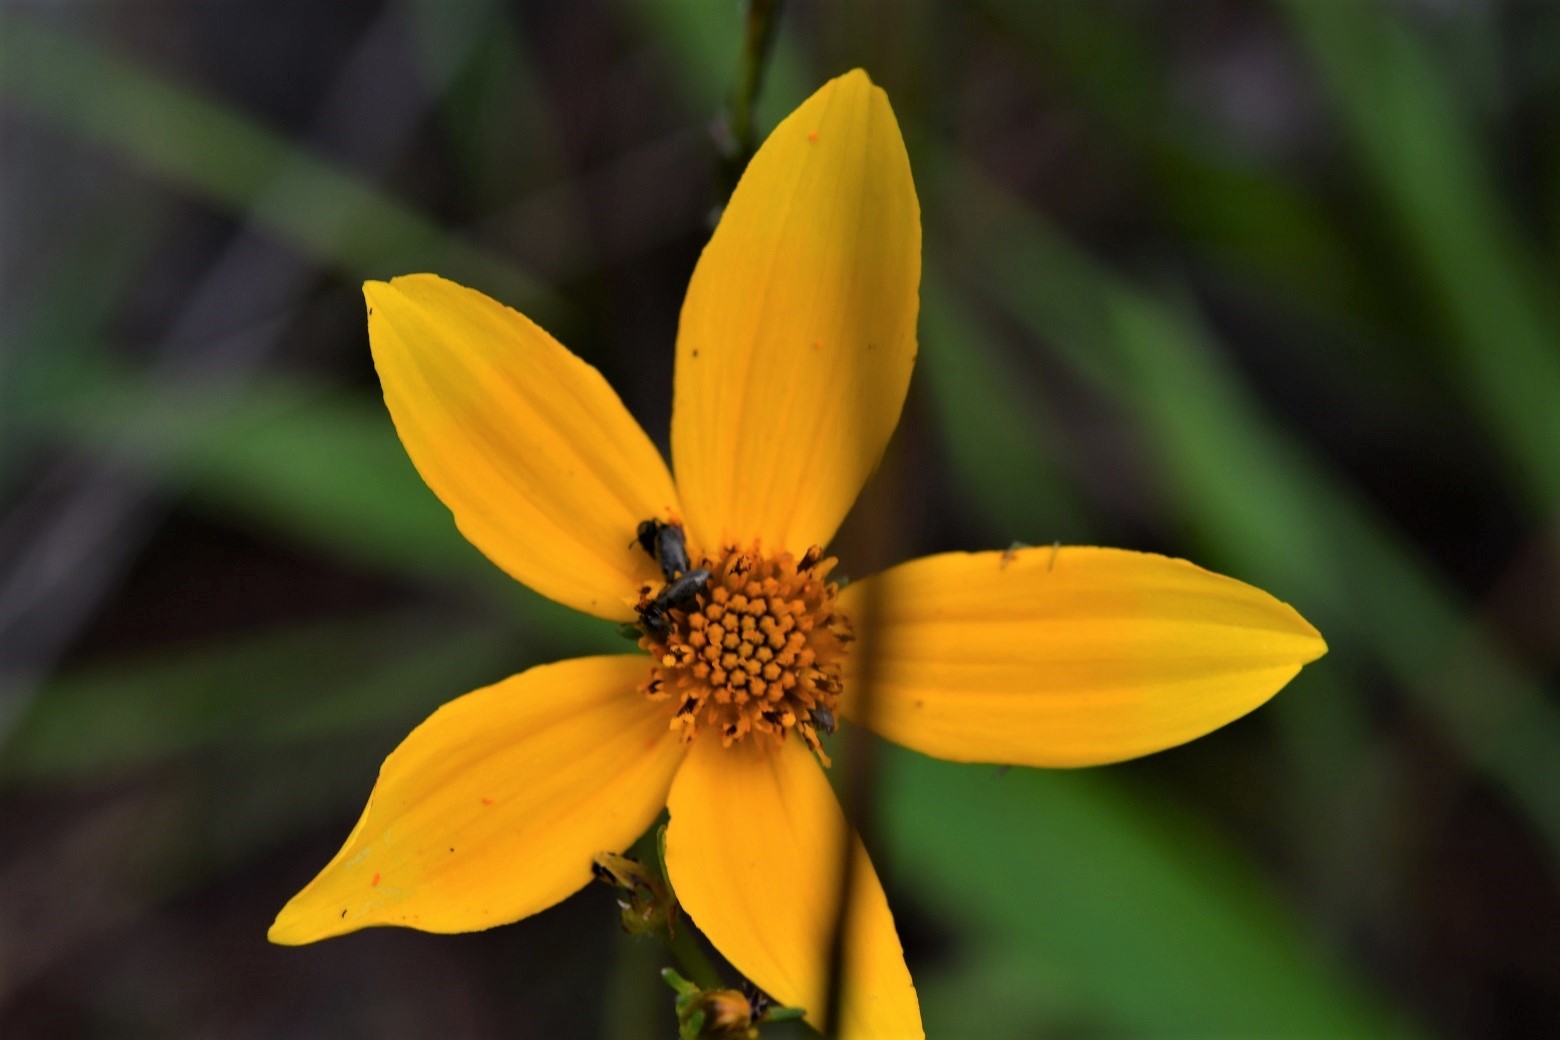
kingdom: Plantae
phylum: Tracheophyta
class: Magnoliopsida
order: Asterales
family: Asteraceae
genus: Bidens
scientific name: Bidens aurea
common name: Arizona beggar-ticks
